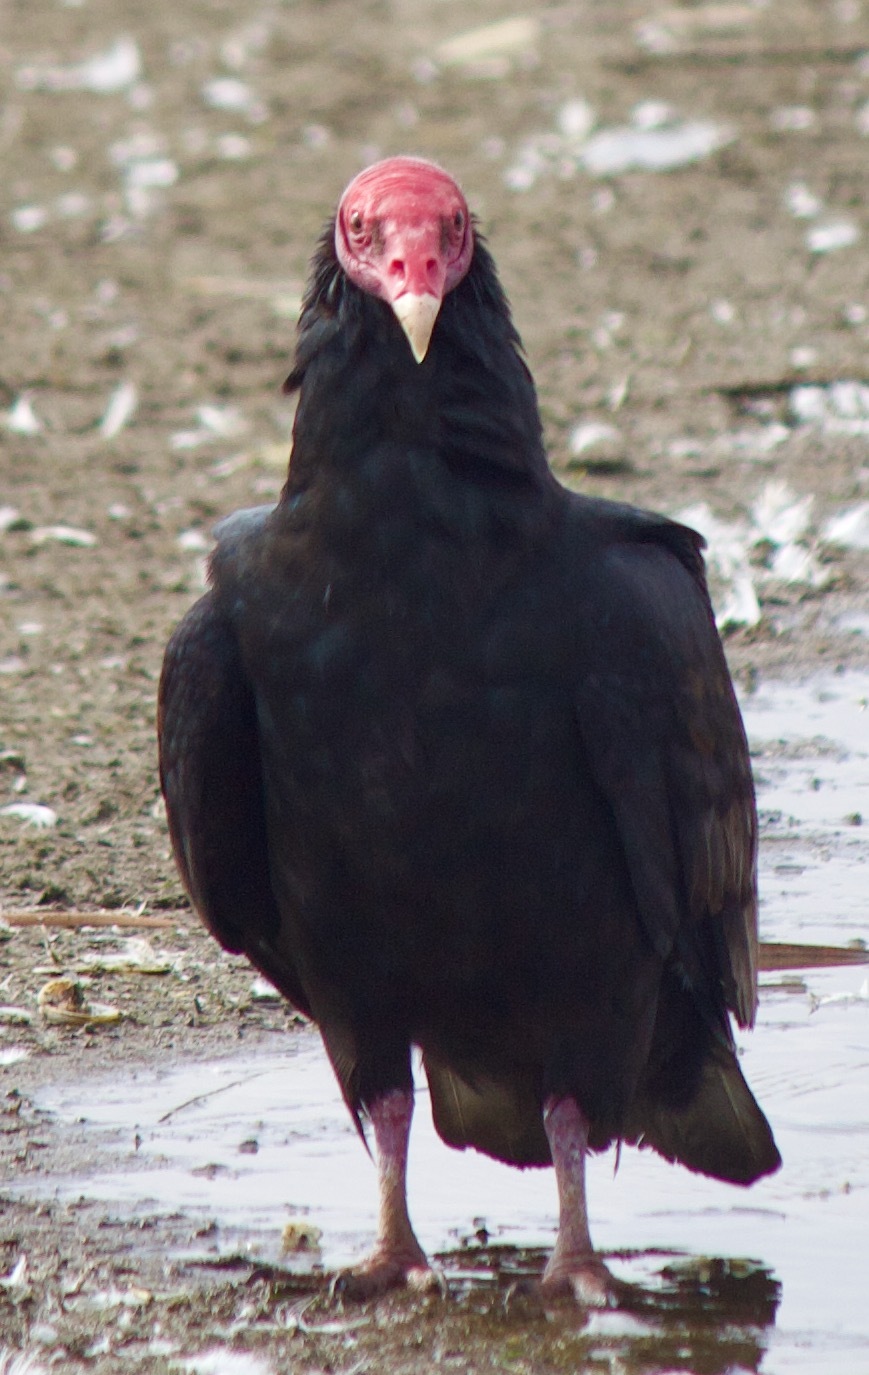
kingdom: Animalia
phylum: Chordata
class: Aves
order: Accipitriformes
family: Cathartidae
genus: Cathartes
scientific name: Cathartes aura
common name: Turkey vulture
